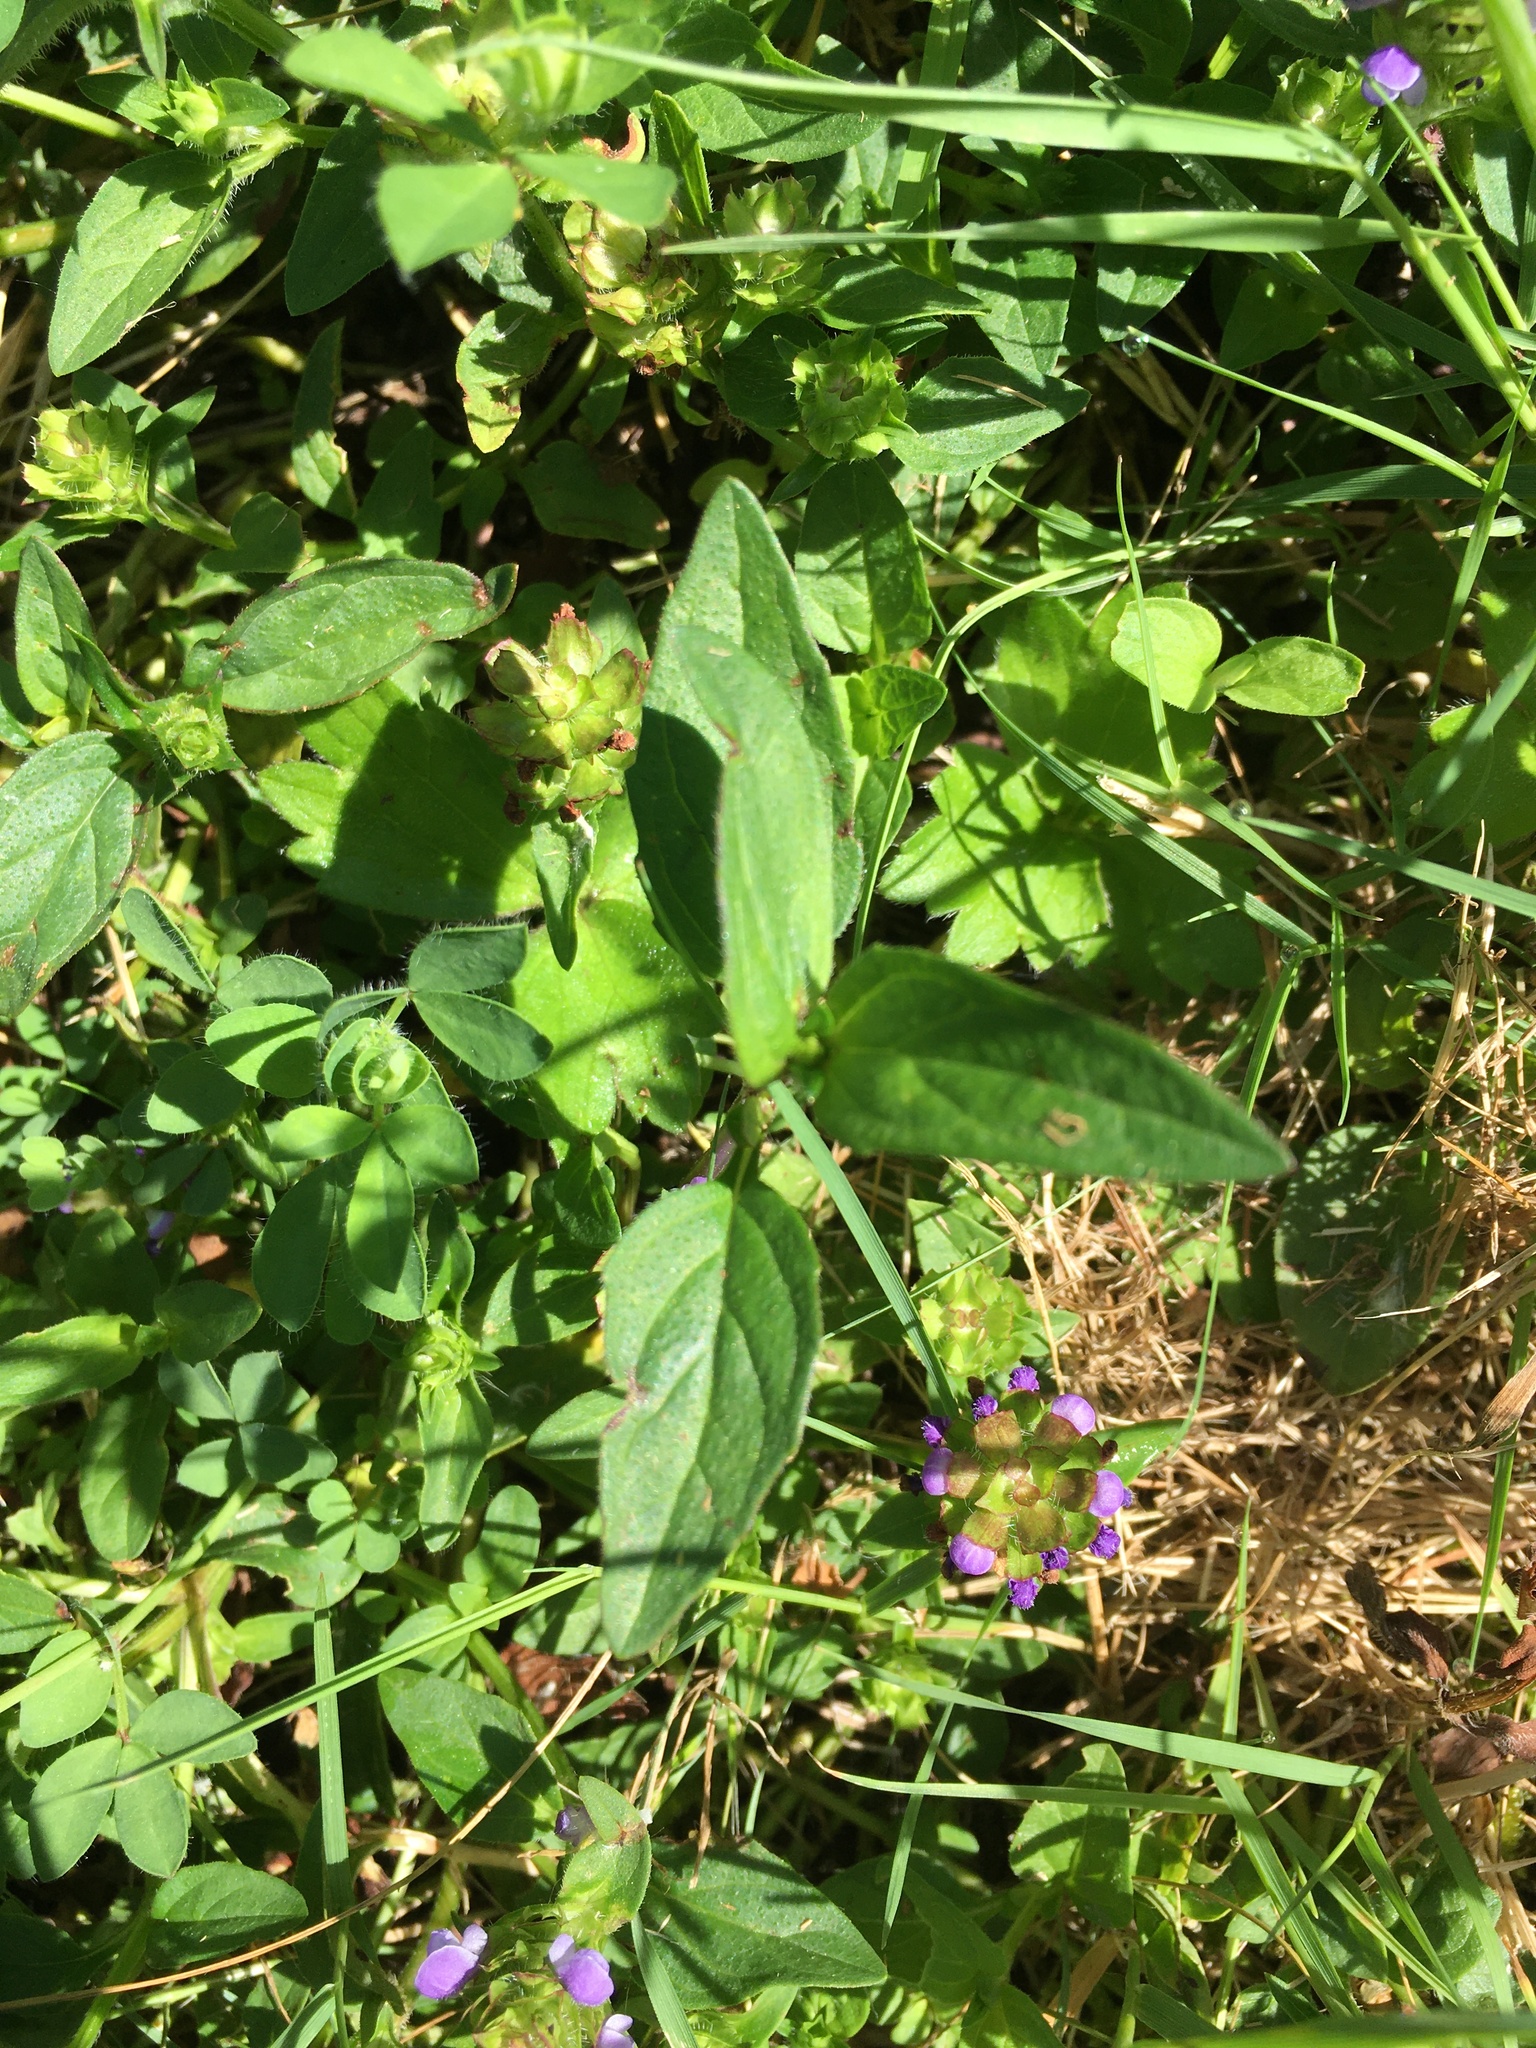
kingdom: Plantae
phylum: Tracheophyta
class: Magnoliopsida
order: Lamiales
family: Lamiaceae
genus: Prunella
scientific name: Prunella vulgaris
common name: Heal-all
